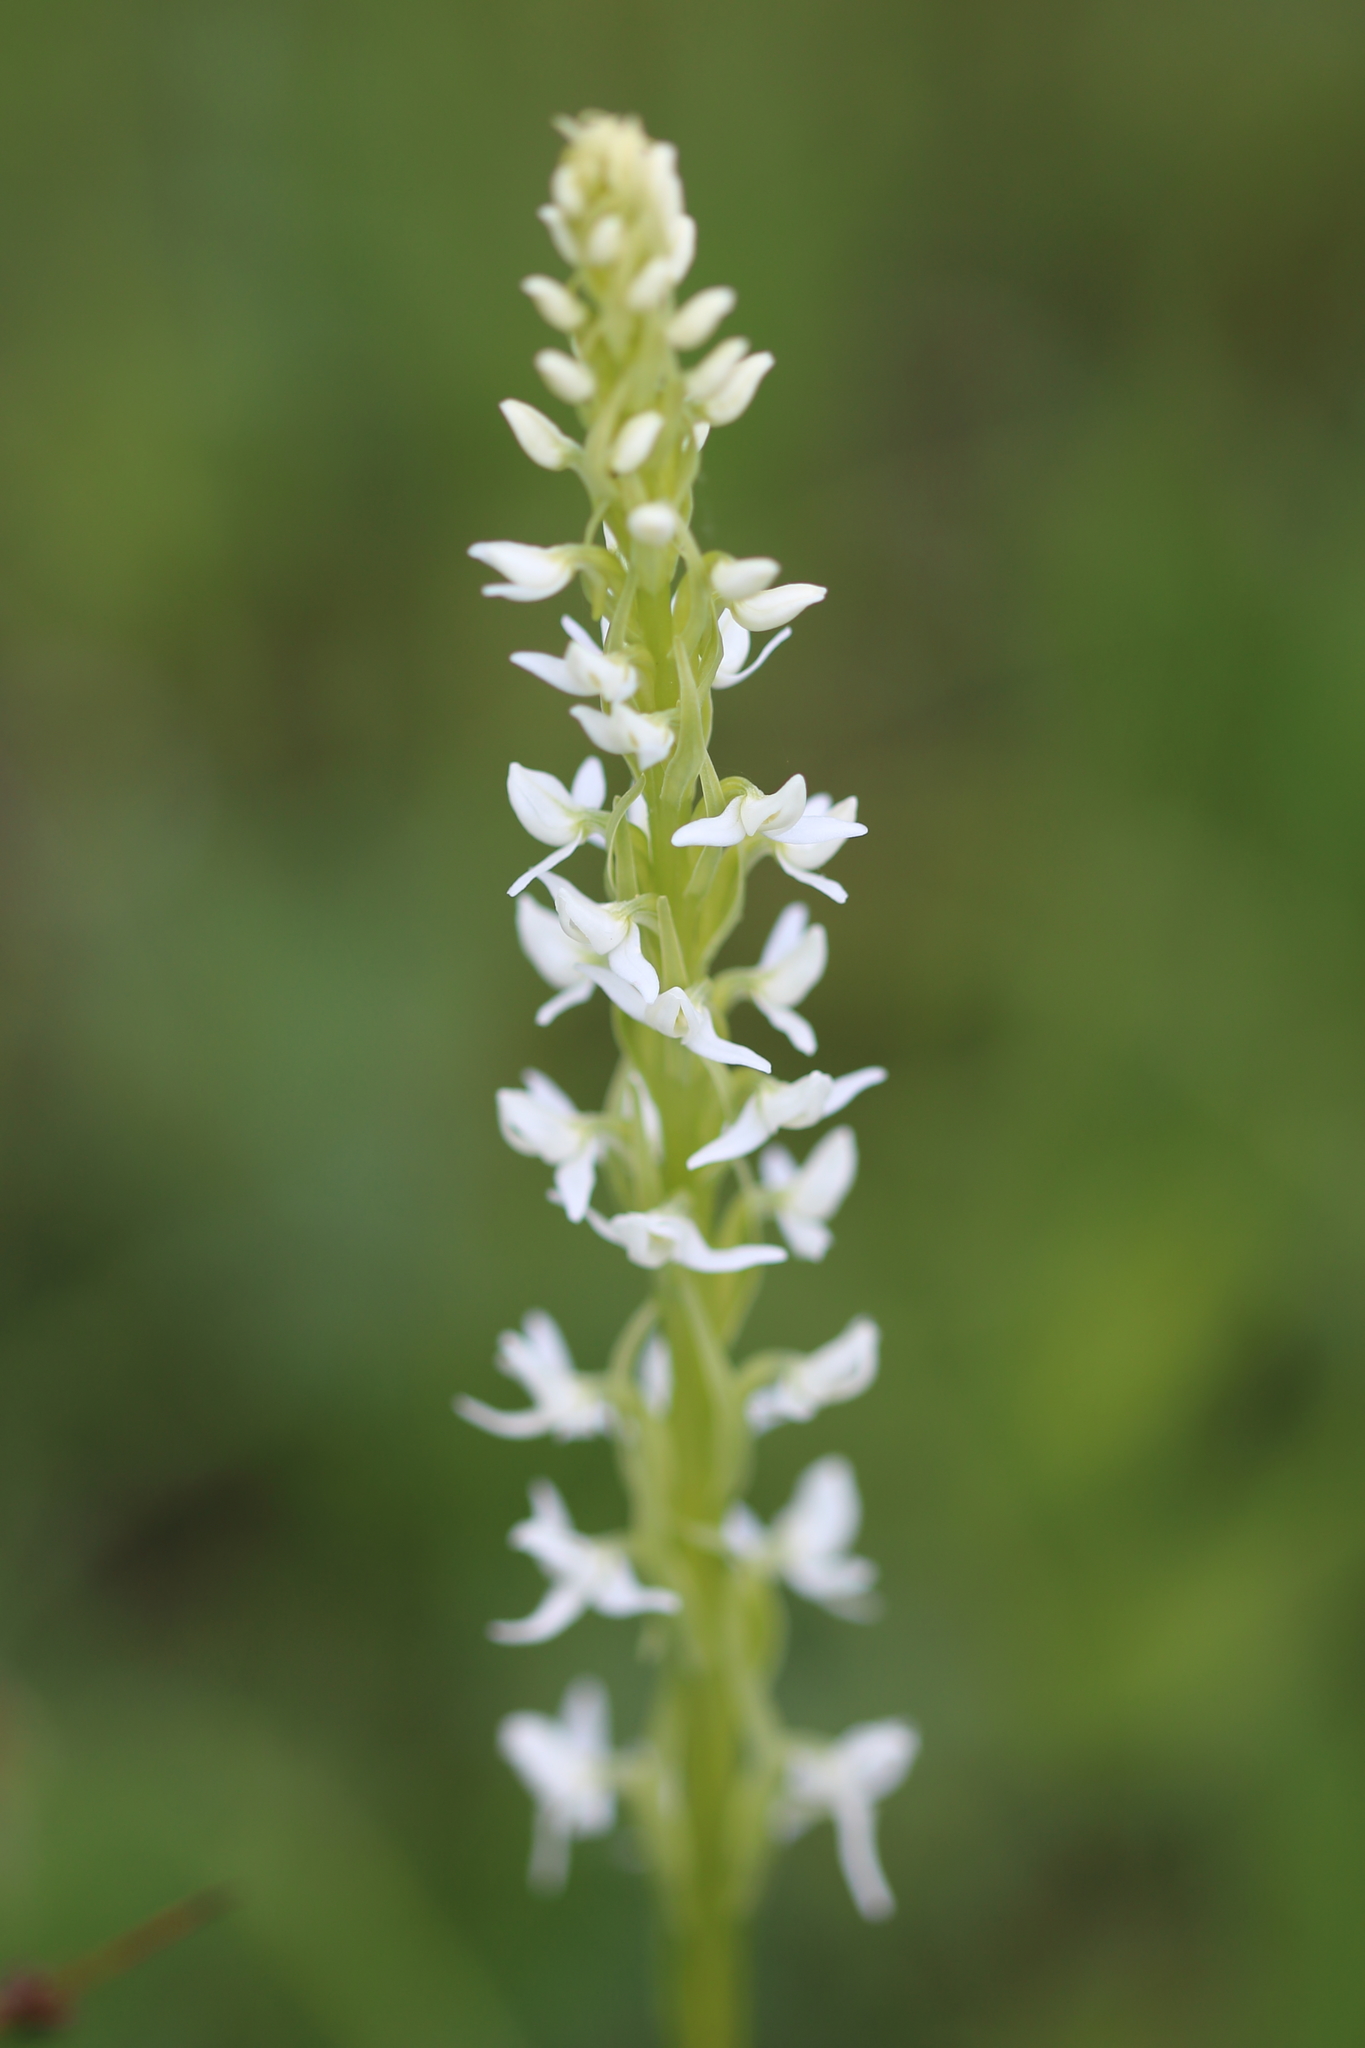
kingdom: Plantae
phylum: Tracheophyta
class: Liliopsida
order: Asparagales
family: Orchidaceae
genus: Platanthera
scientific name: Platanthera dilatata
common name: Bog candles
